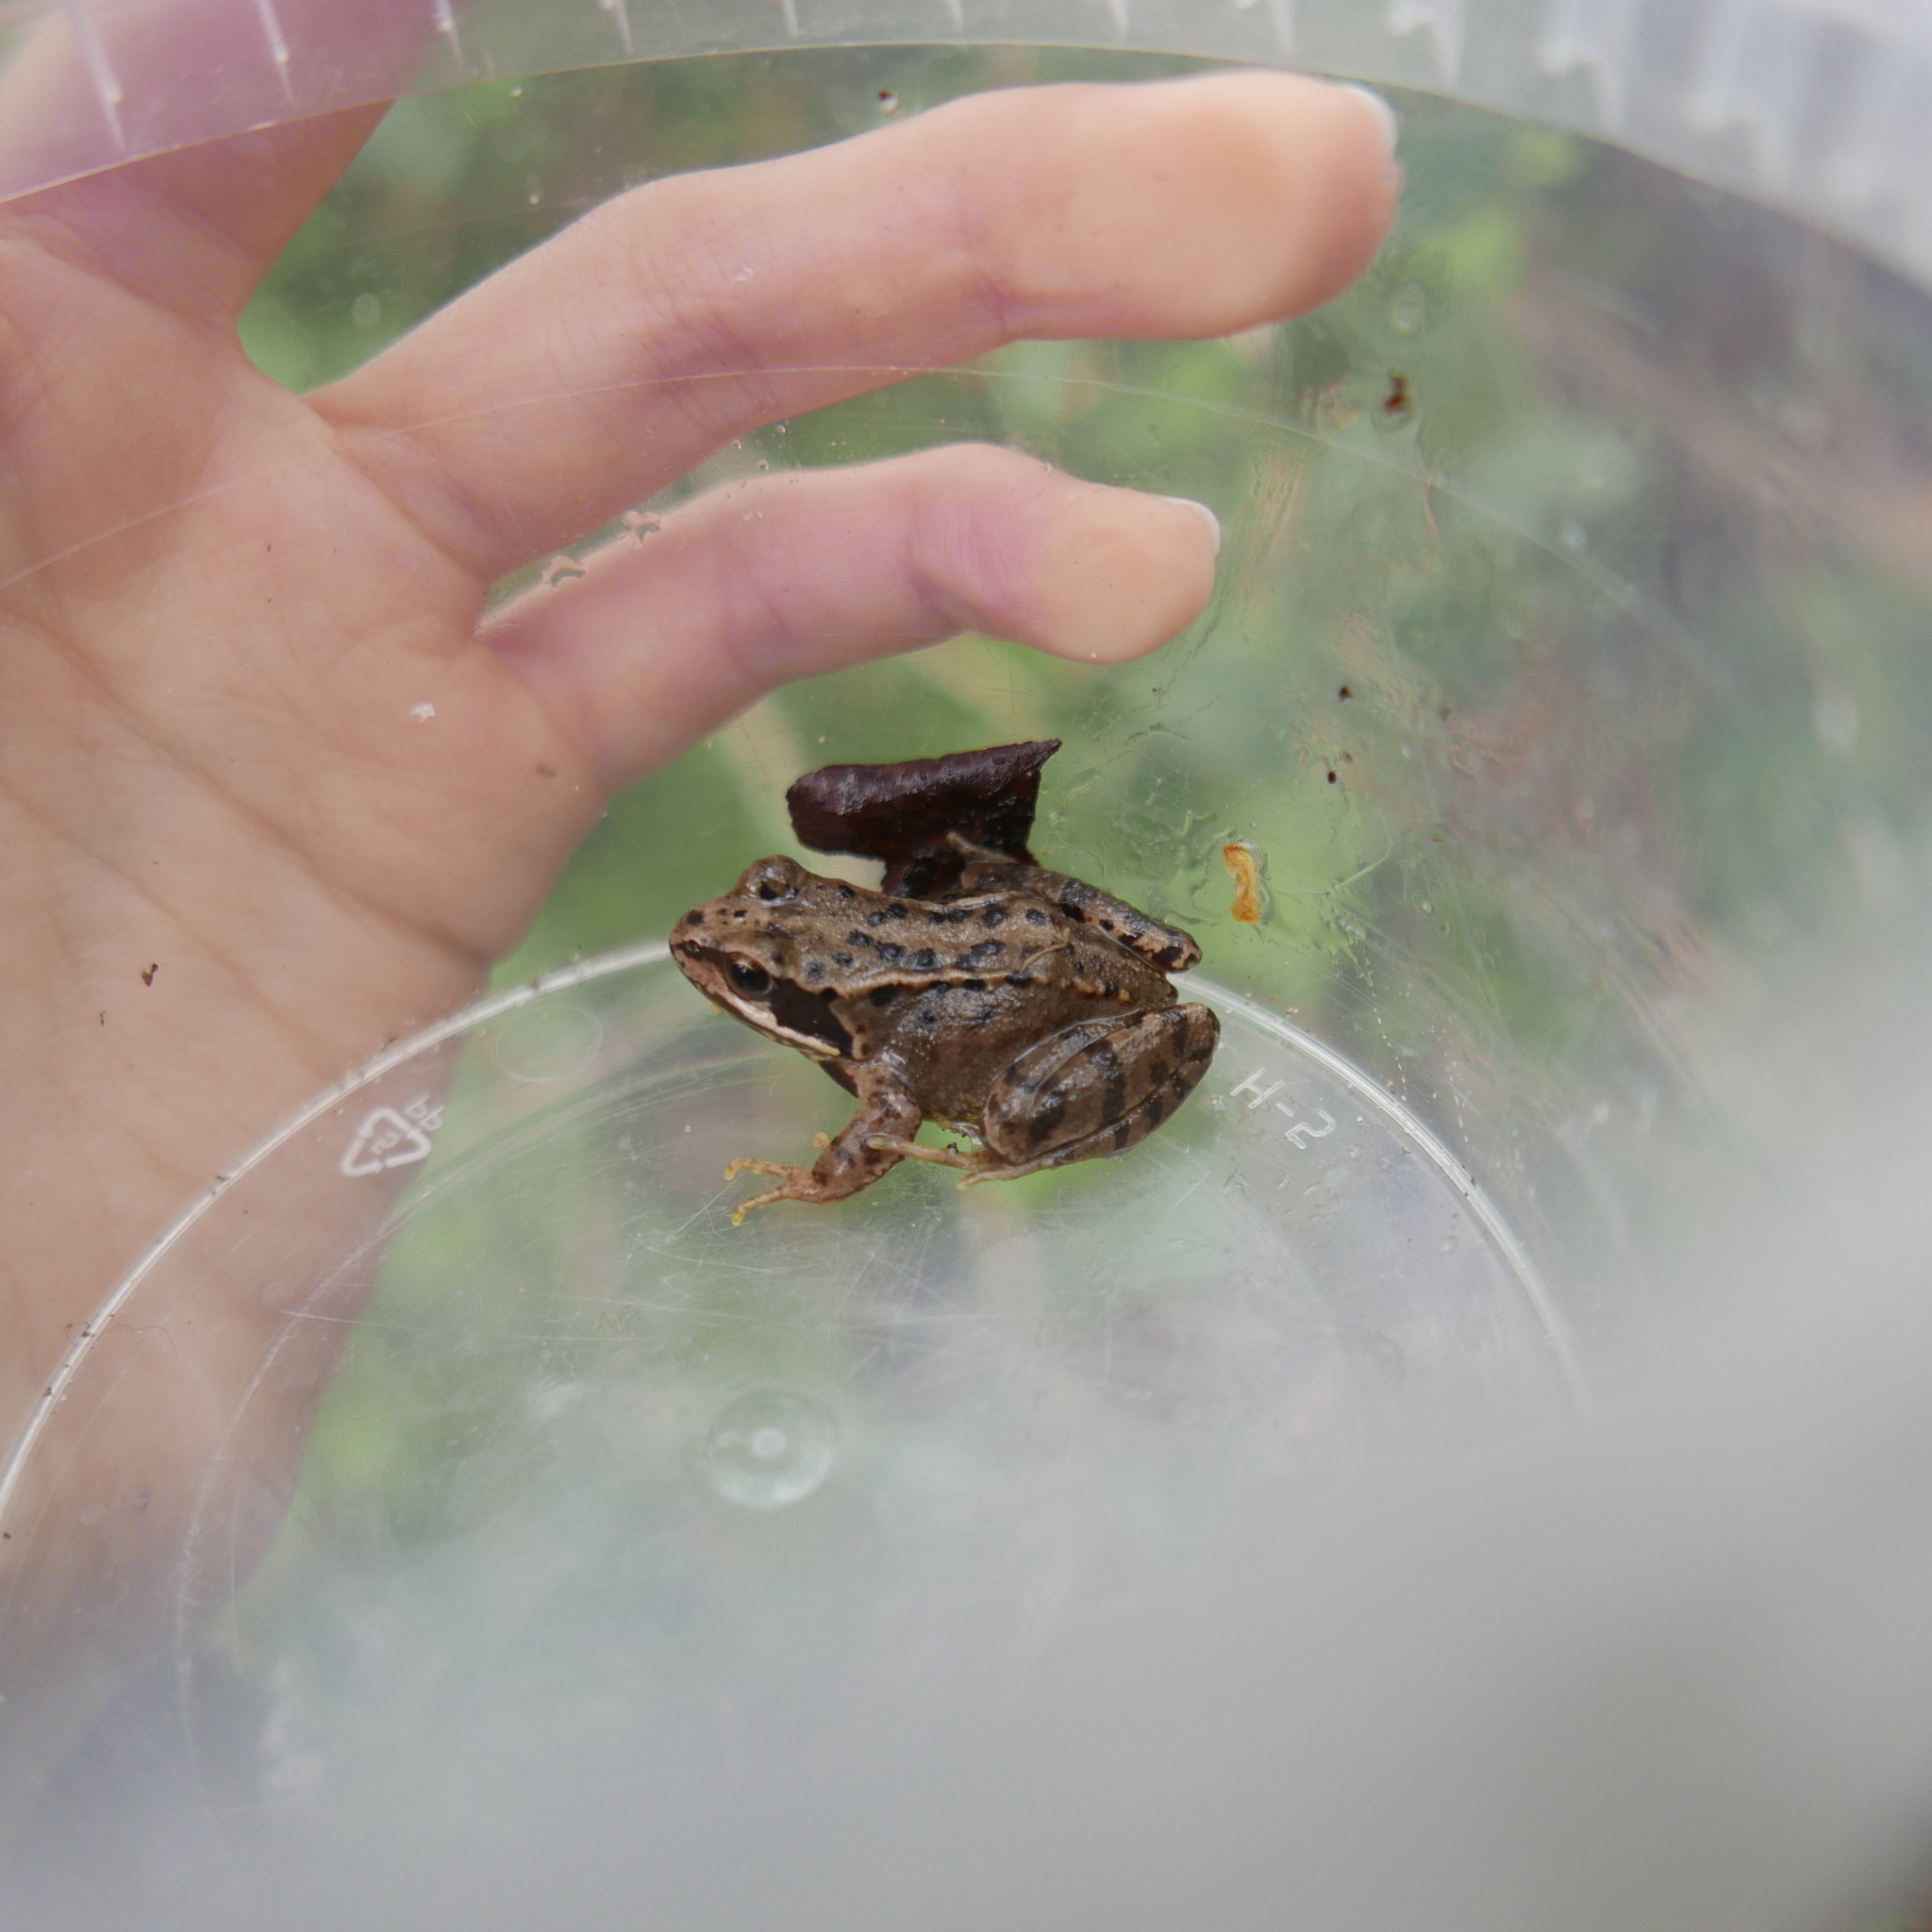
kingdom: Animalia
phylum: Chordata
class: Amphibia
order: Anura
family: Ranidae
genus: Rana
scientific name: Rana temporaria
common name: Common frog
